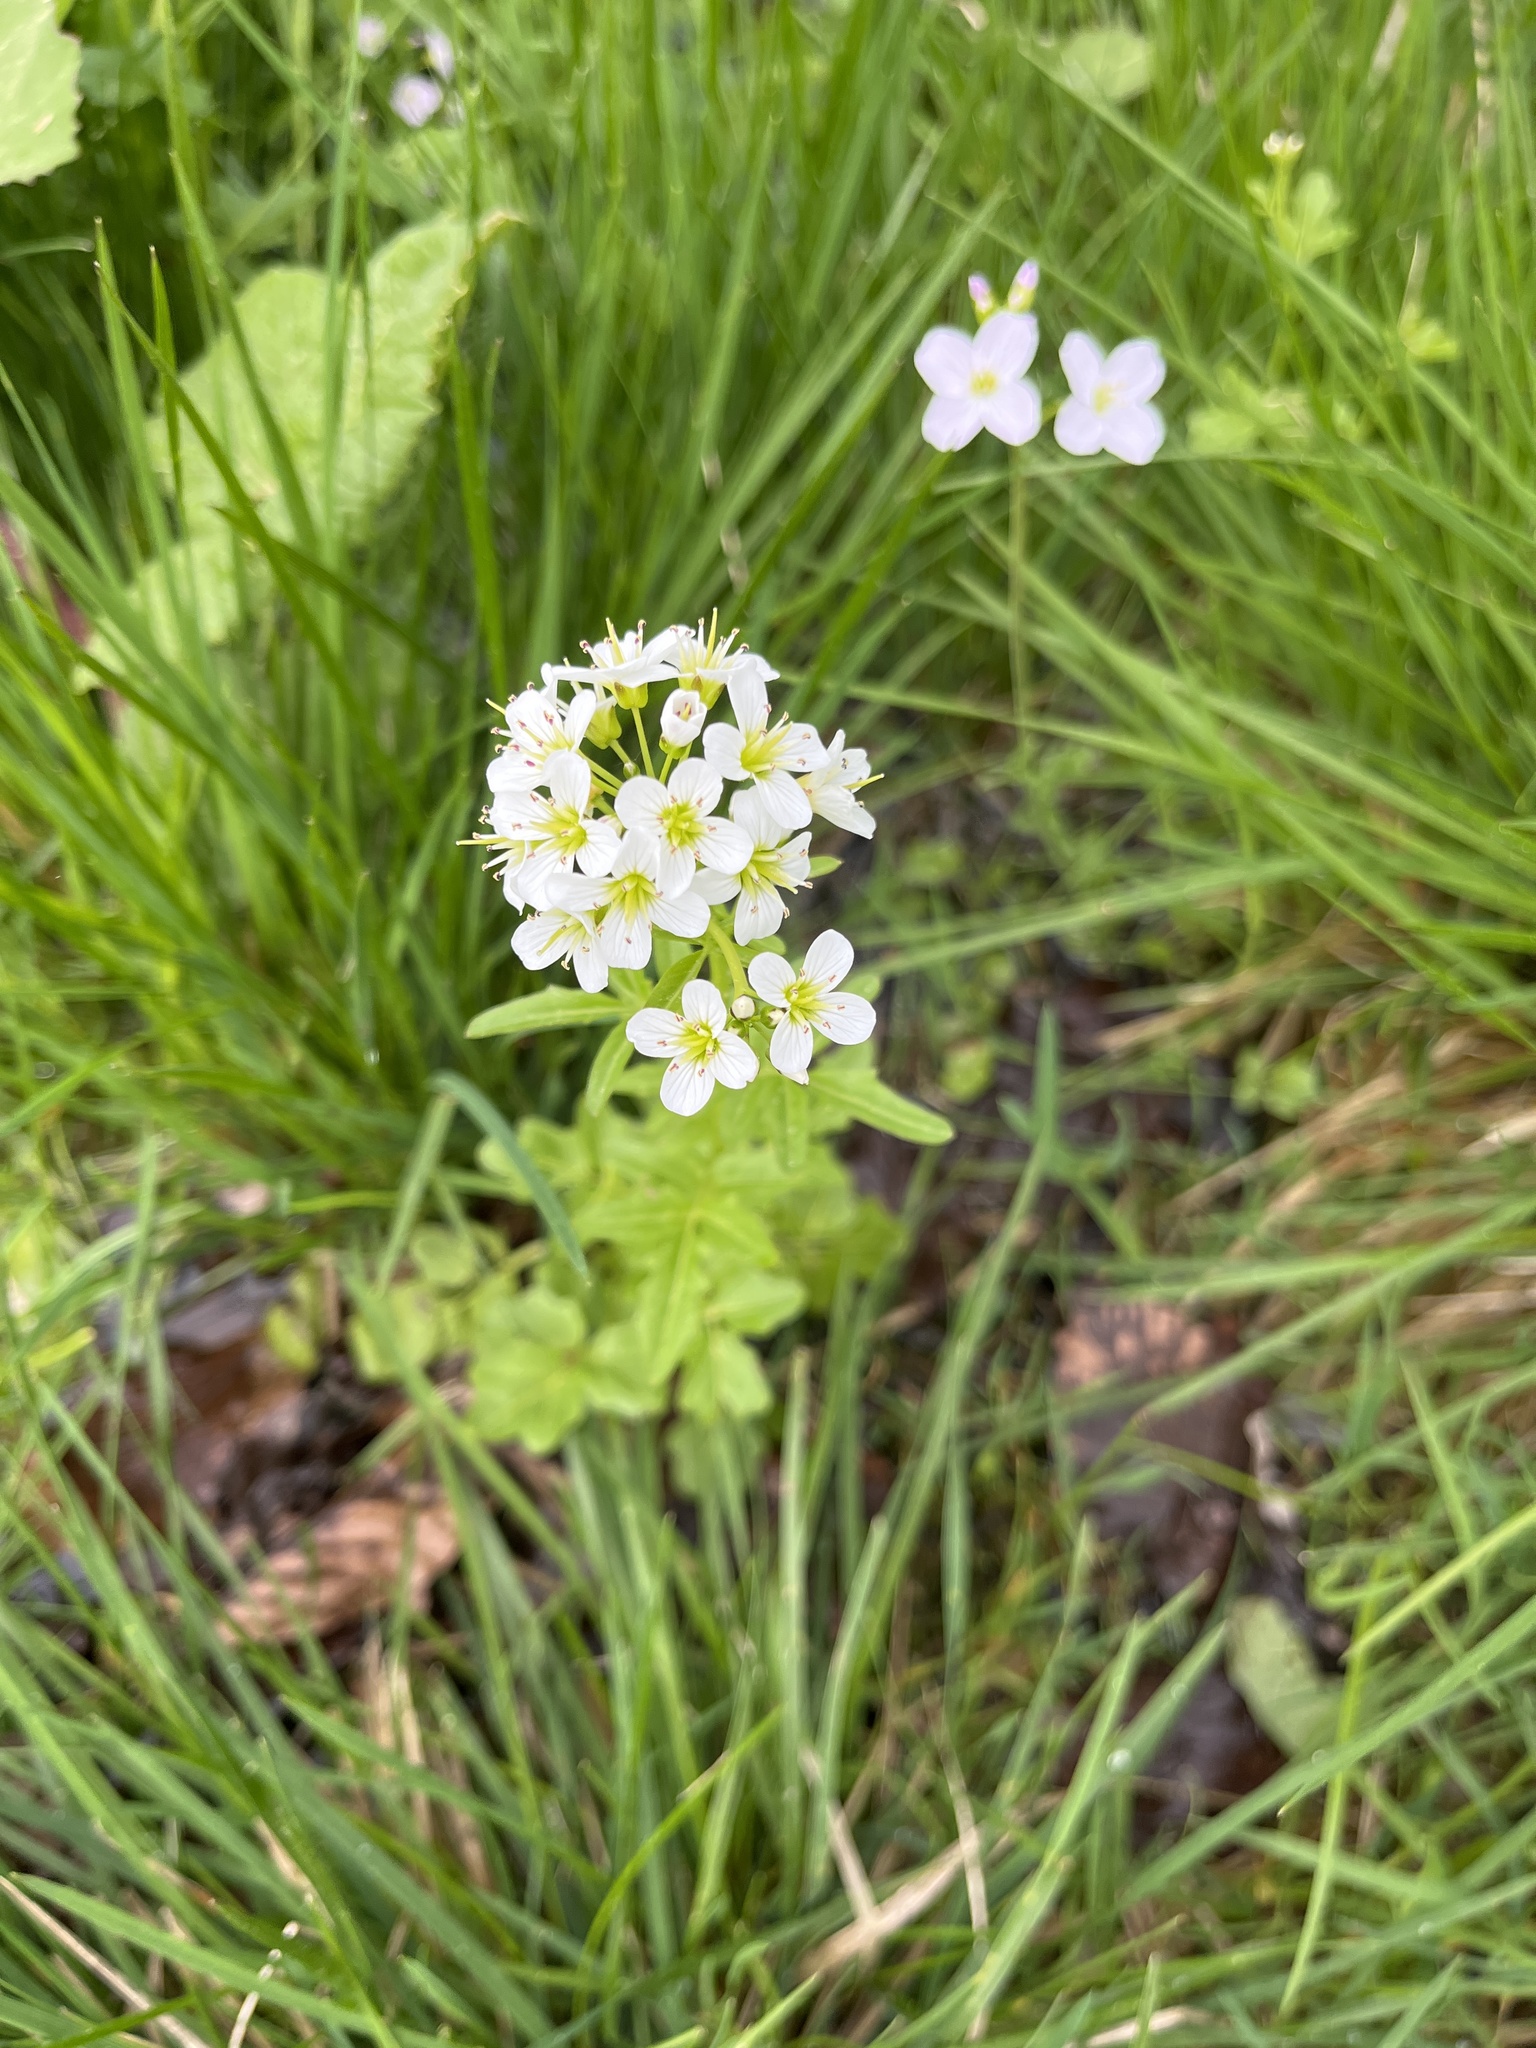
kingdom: Plantae
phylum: Tracheophyta
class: Magnoliopsida
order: Brassicales
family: Brassicaceae
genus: Cardamine
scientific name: Cardamine amara
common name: Large bitter-cress
